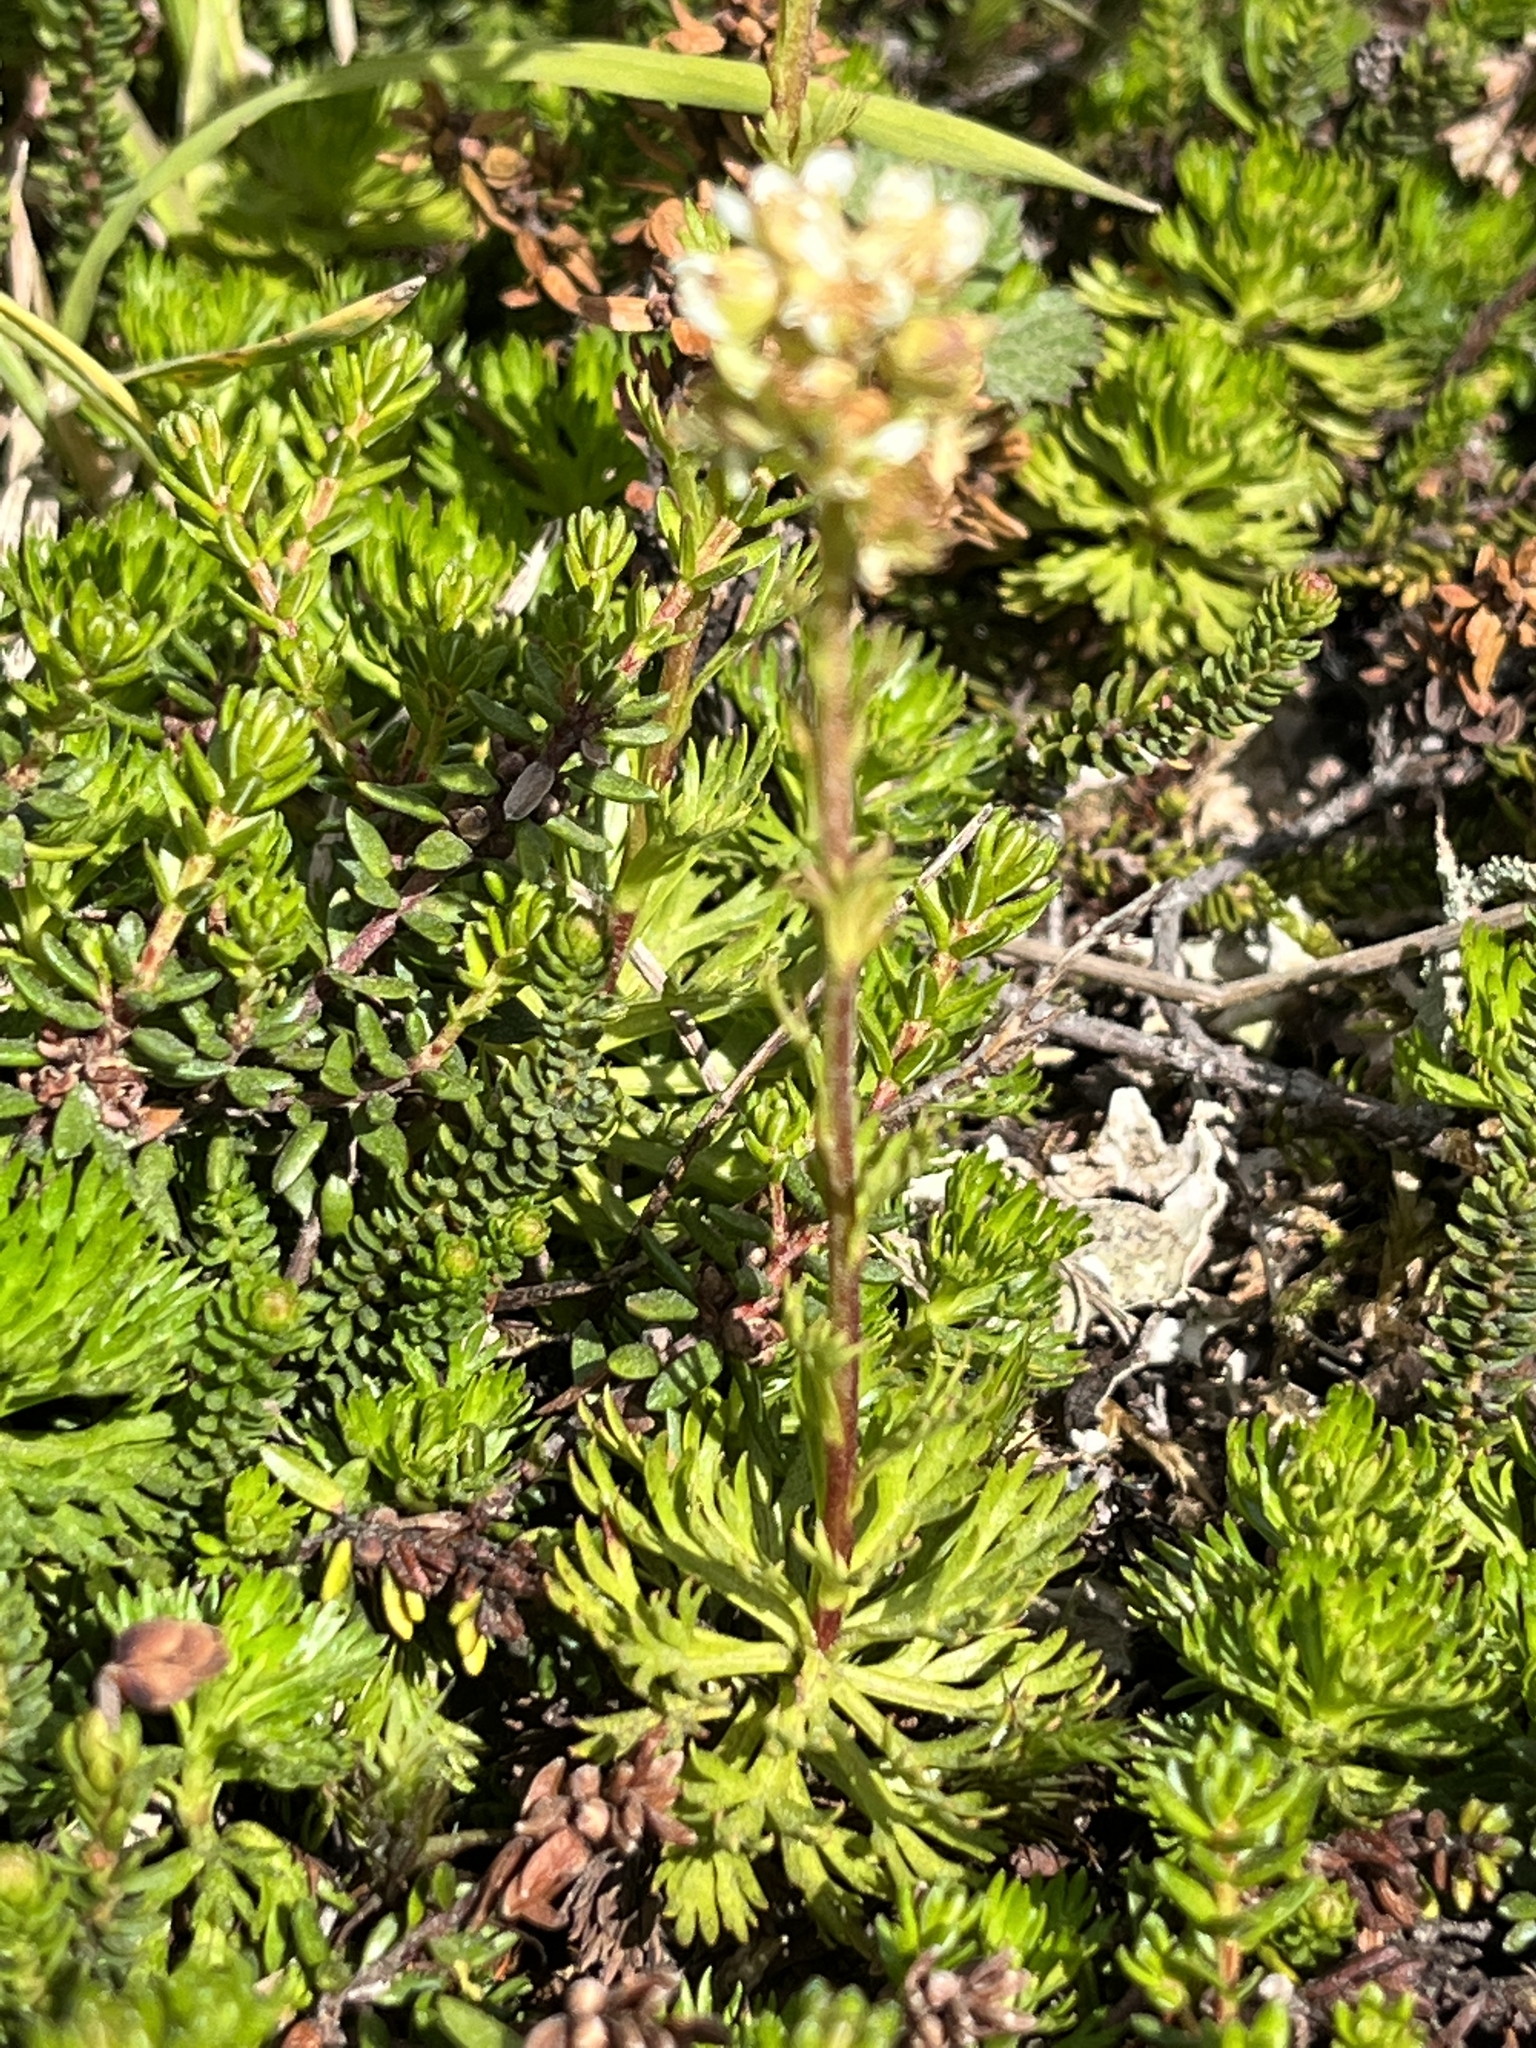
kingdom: Plantae
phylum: Tracheophyta
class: Magnoliopsida
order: Rosales
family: Rosaceae
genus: Luetkea
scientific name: Luetkea pectinata
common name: Partridgefoot
